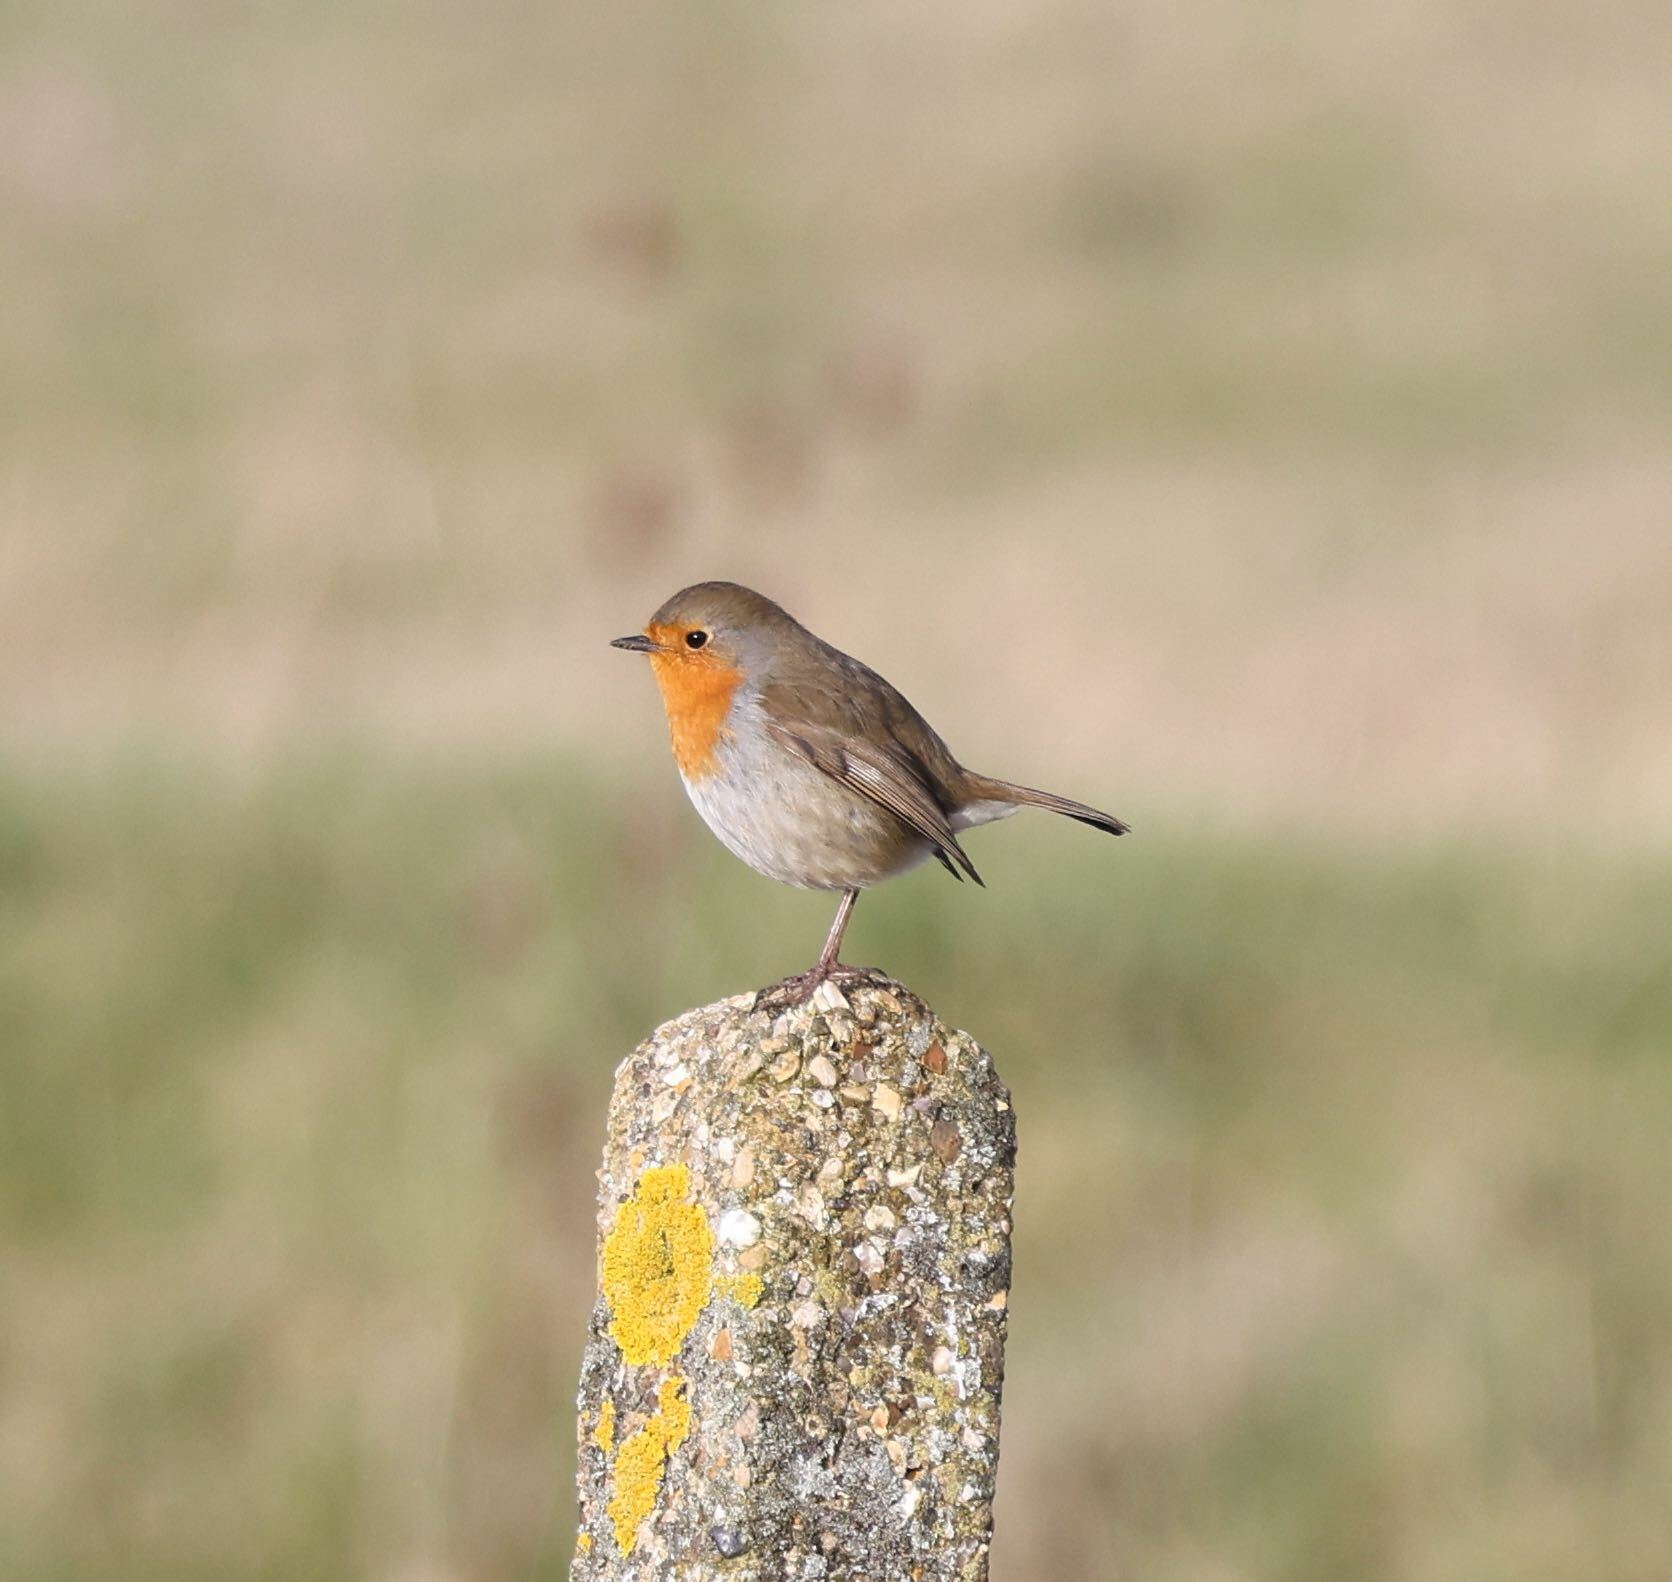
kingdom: Animalia
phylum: Chordata
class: Aves
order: Passeriformes
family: Muscicapidae
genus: Erithacus
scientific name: Erithacus rubecula
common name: European robin
